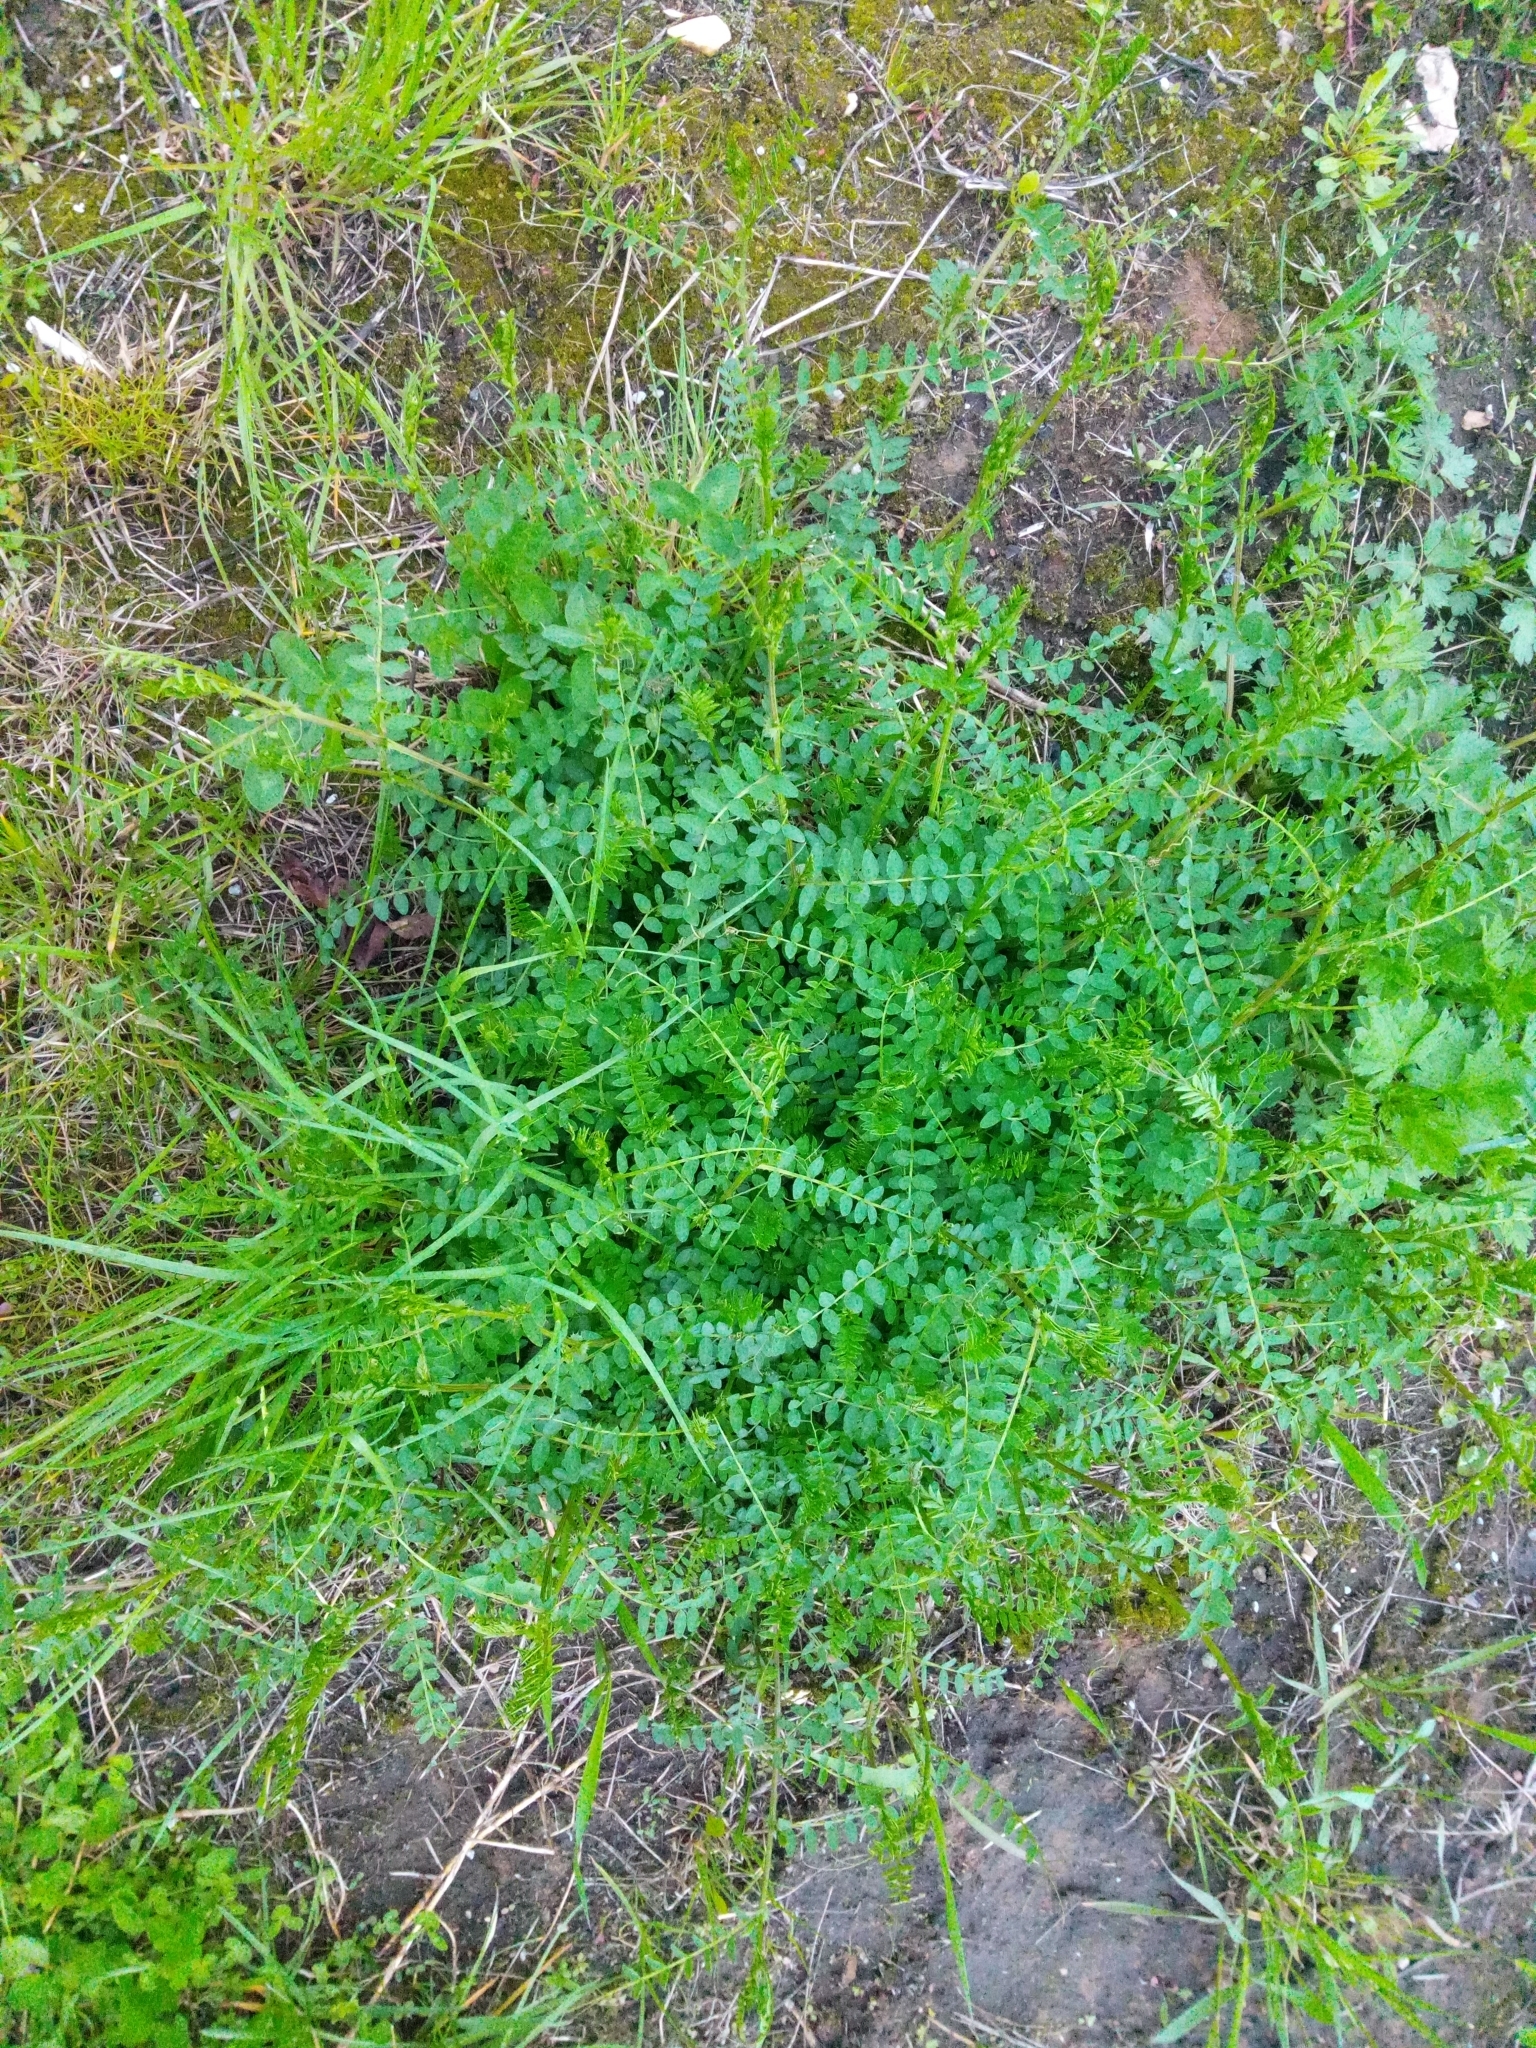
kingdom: Plantae
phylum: Tracheophyta
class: Magnoliopsida
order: Fabales
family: Fabaceae
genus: Vicia
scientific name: Vicia sylvatica
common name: Wood vetch
